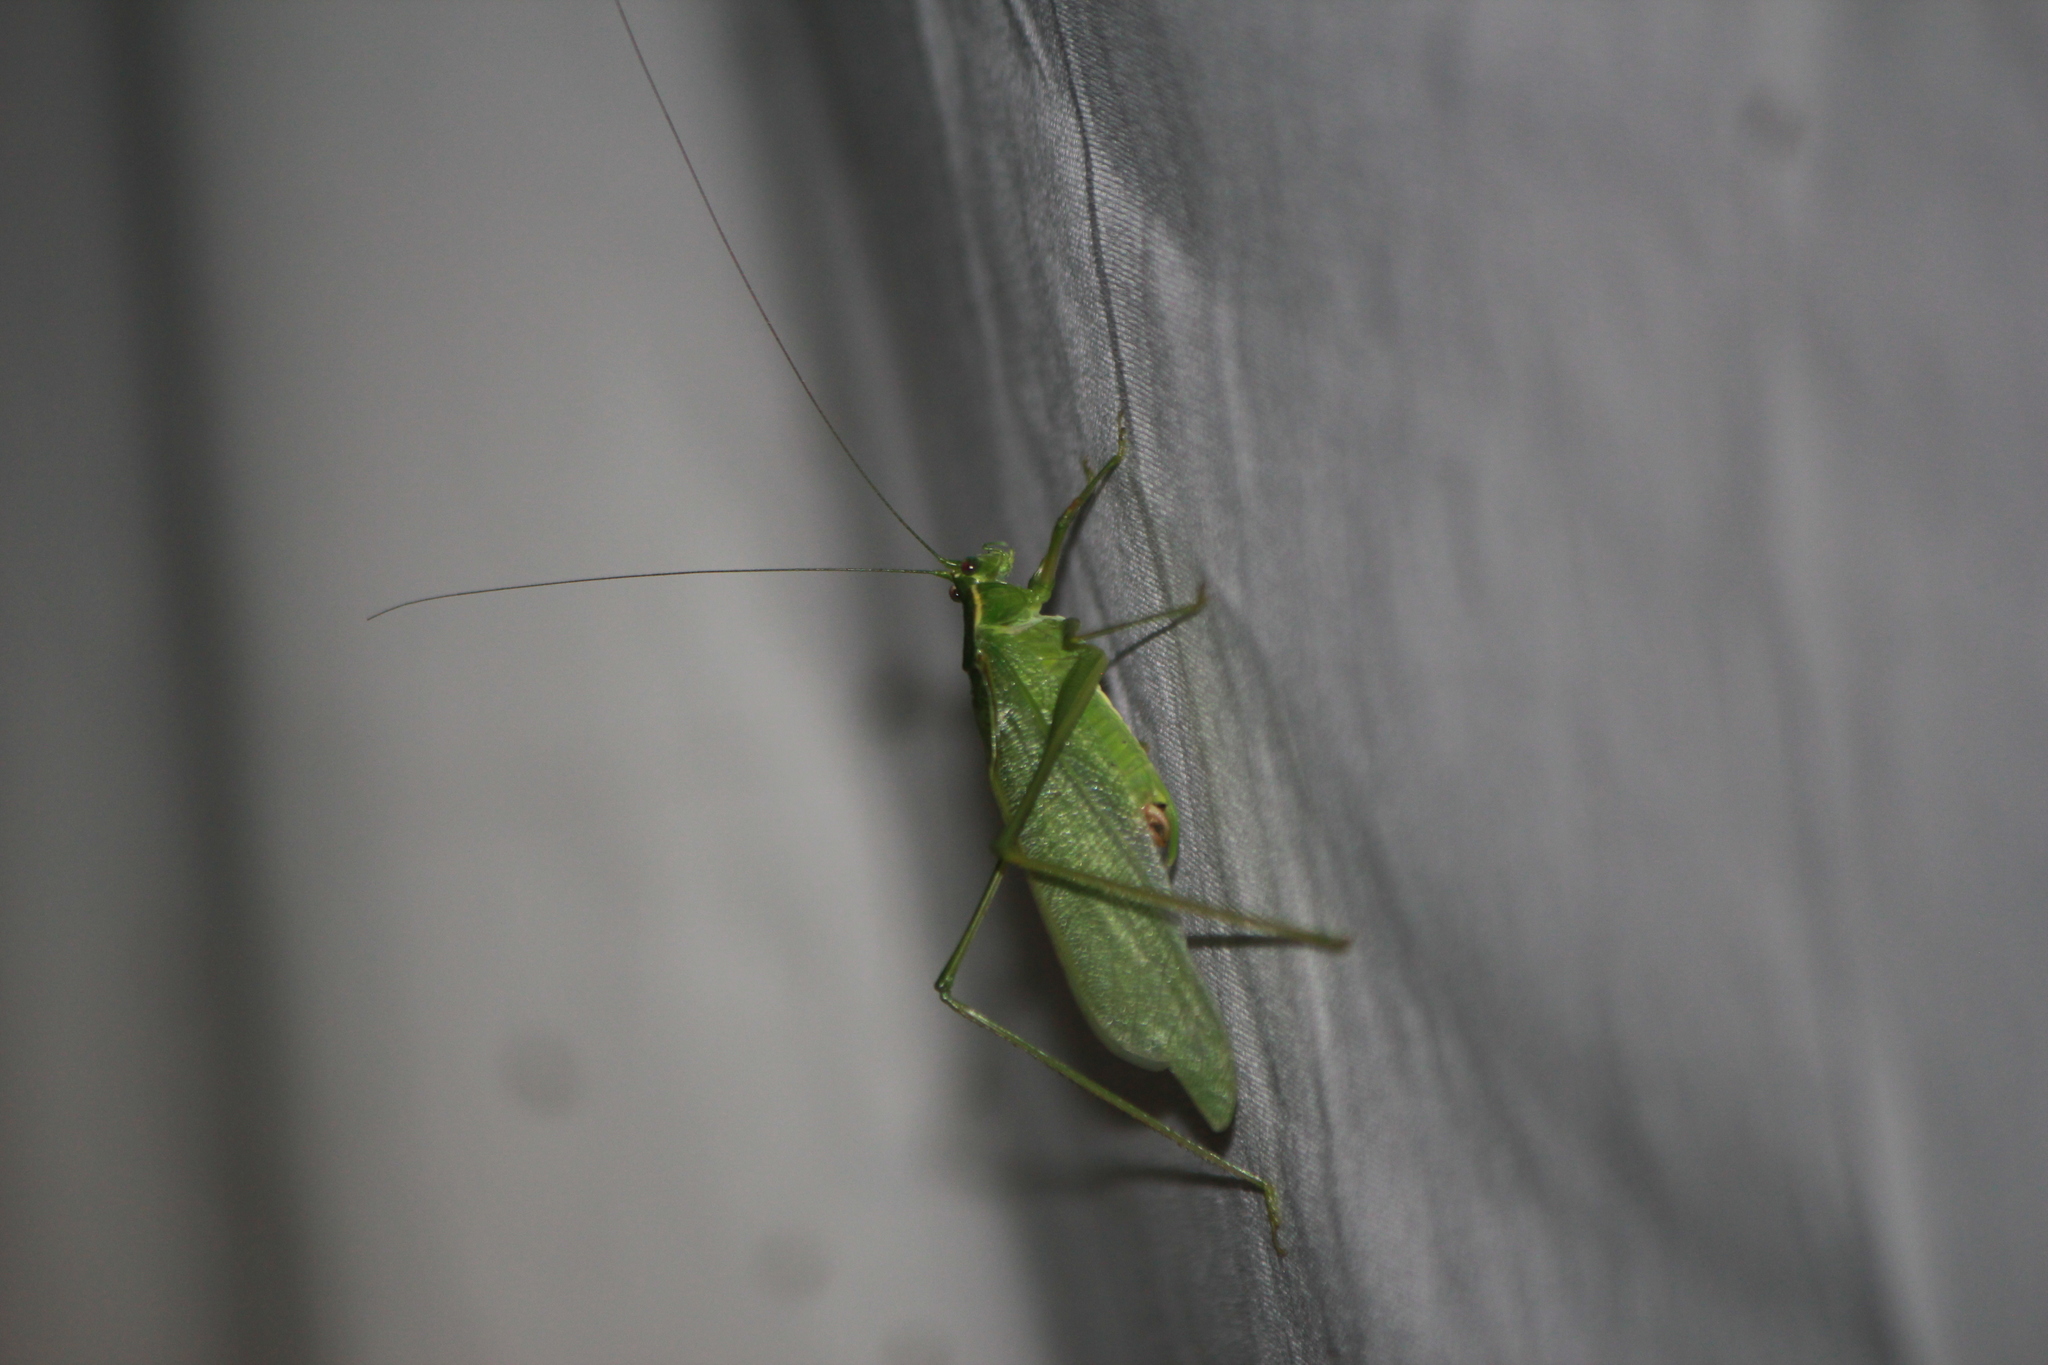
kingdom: Animalia
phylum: Arthropoda
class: Insecta
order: Orthoptera
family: Tettigoniidae
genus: Scudderia
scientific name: Scudderia septentrionalis
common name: Northern bush-katydid
